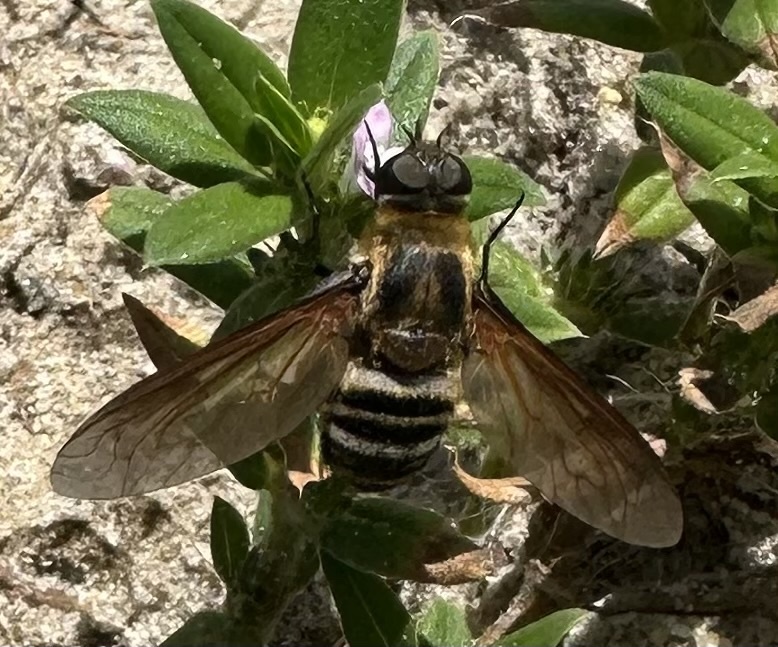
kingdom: Animalia
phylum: Arthropoda
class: Insecta
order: Diptera
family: Bombyliidae
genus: Exoprosopa
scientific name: Exoprosopa fasciata
